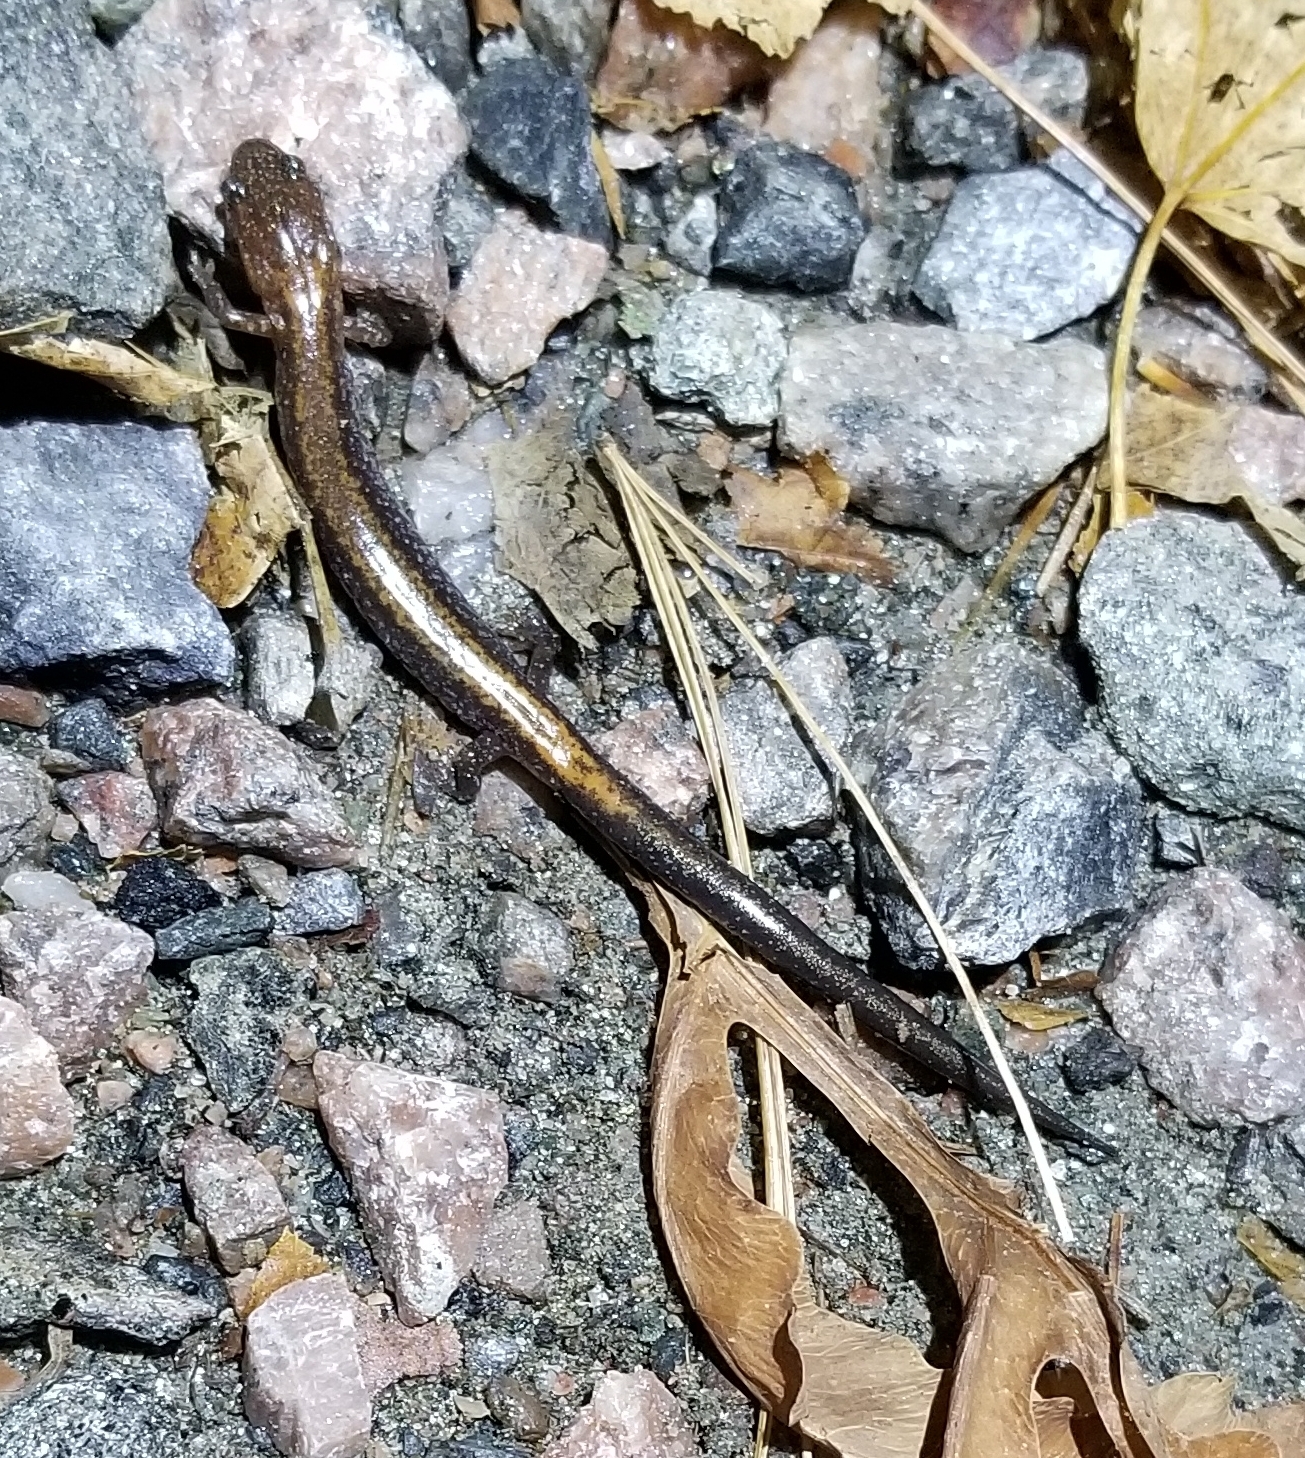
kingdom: Animalia
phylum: Chordata
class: Amphibia
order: Caudata
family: Plethodontidae
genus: Plethodon
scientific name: Plethodon cinereus
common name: Redback salamander
